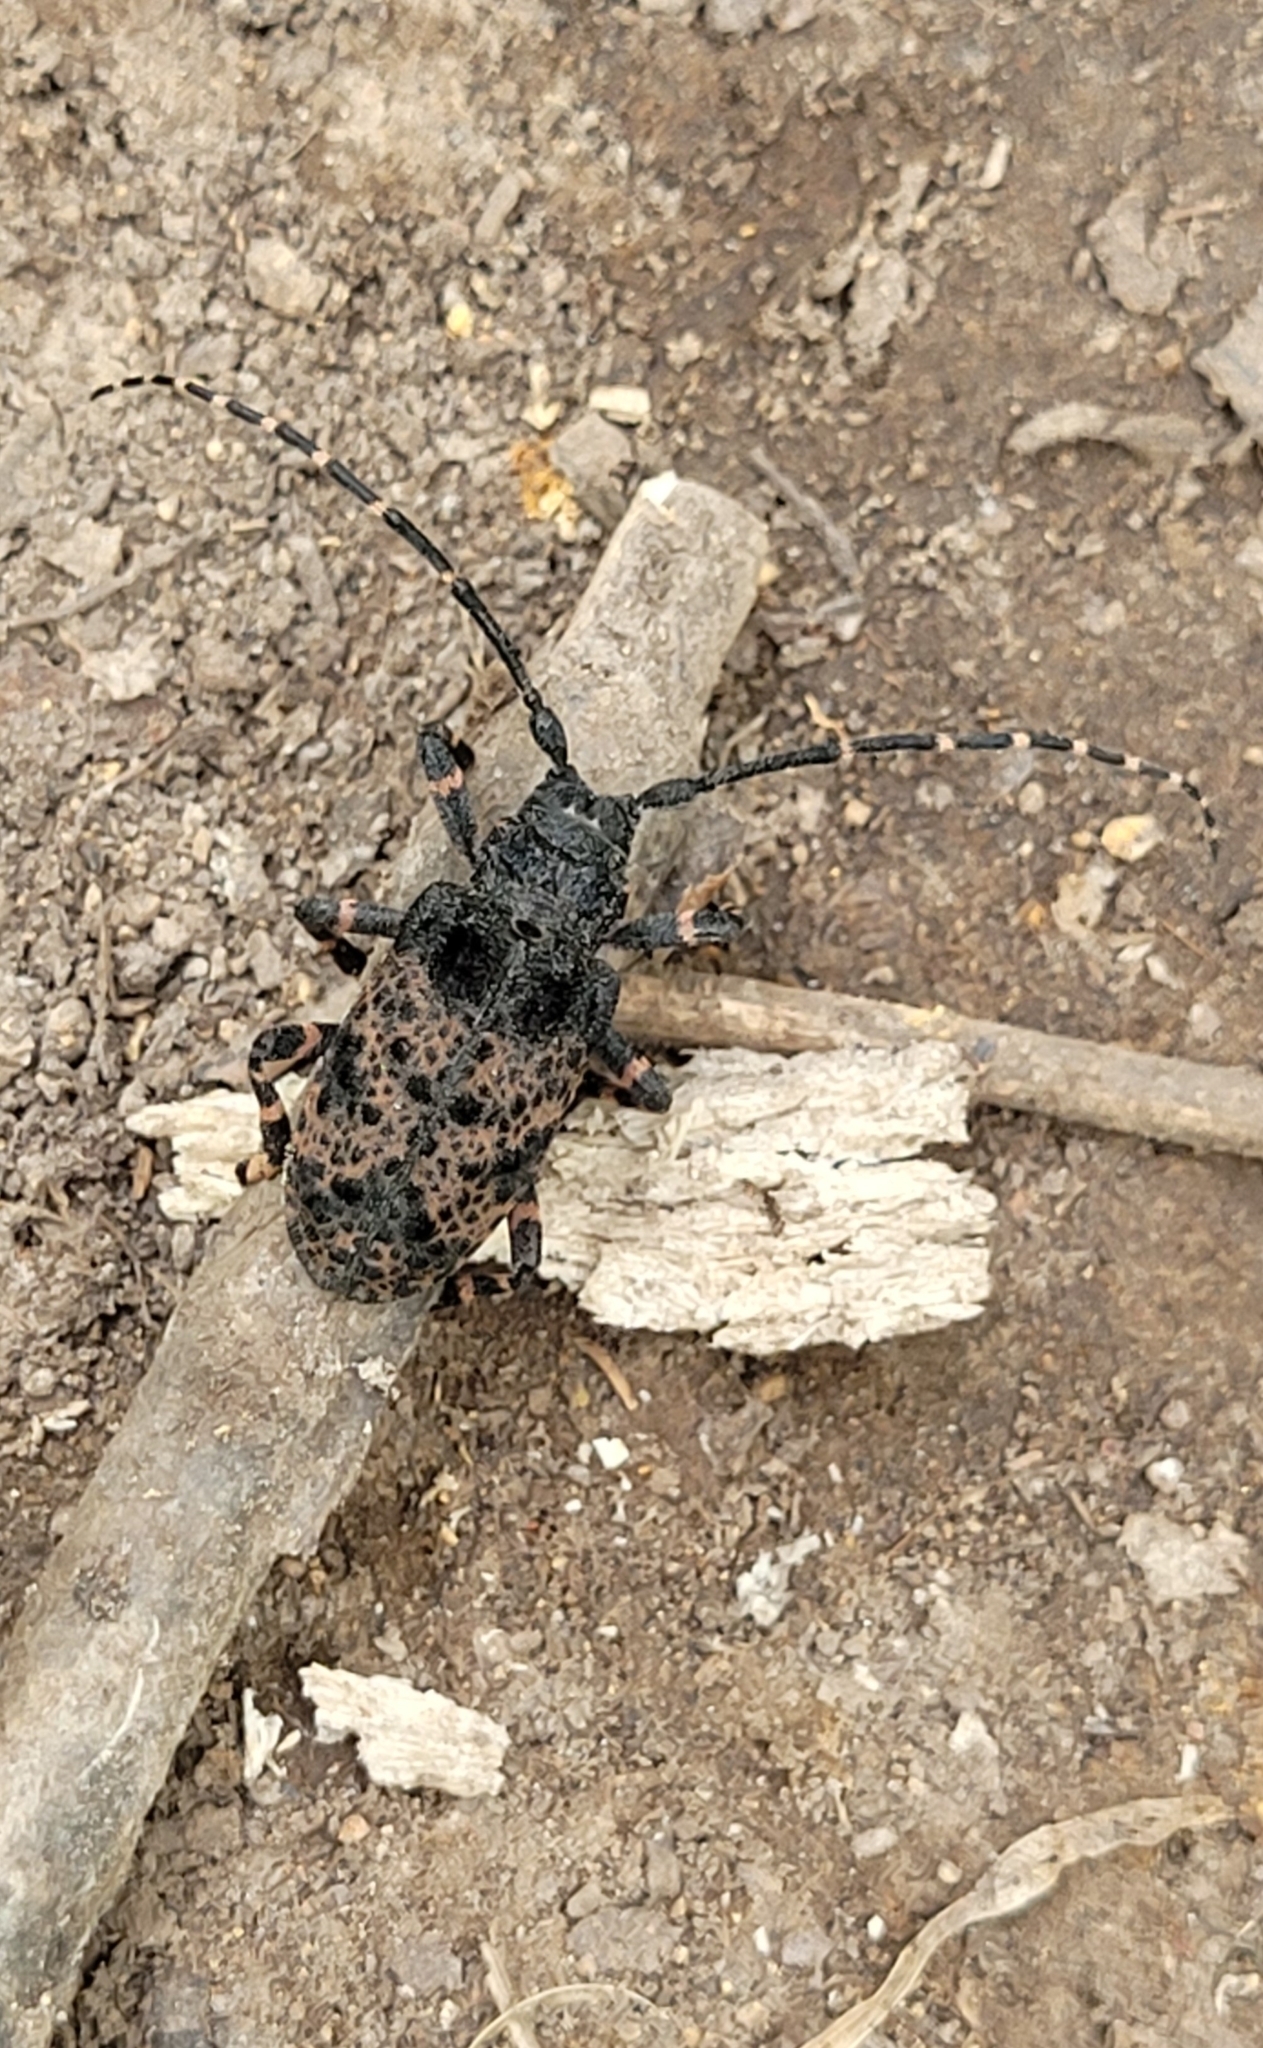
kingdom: Animalia
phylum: Arthropoda
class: Insecta
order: Coleoptera
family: Cerambycidae
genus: Moechotypa
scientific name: Moechotypa diphysis
